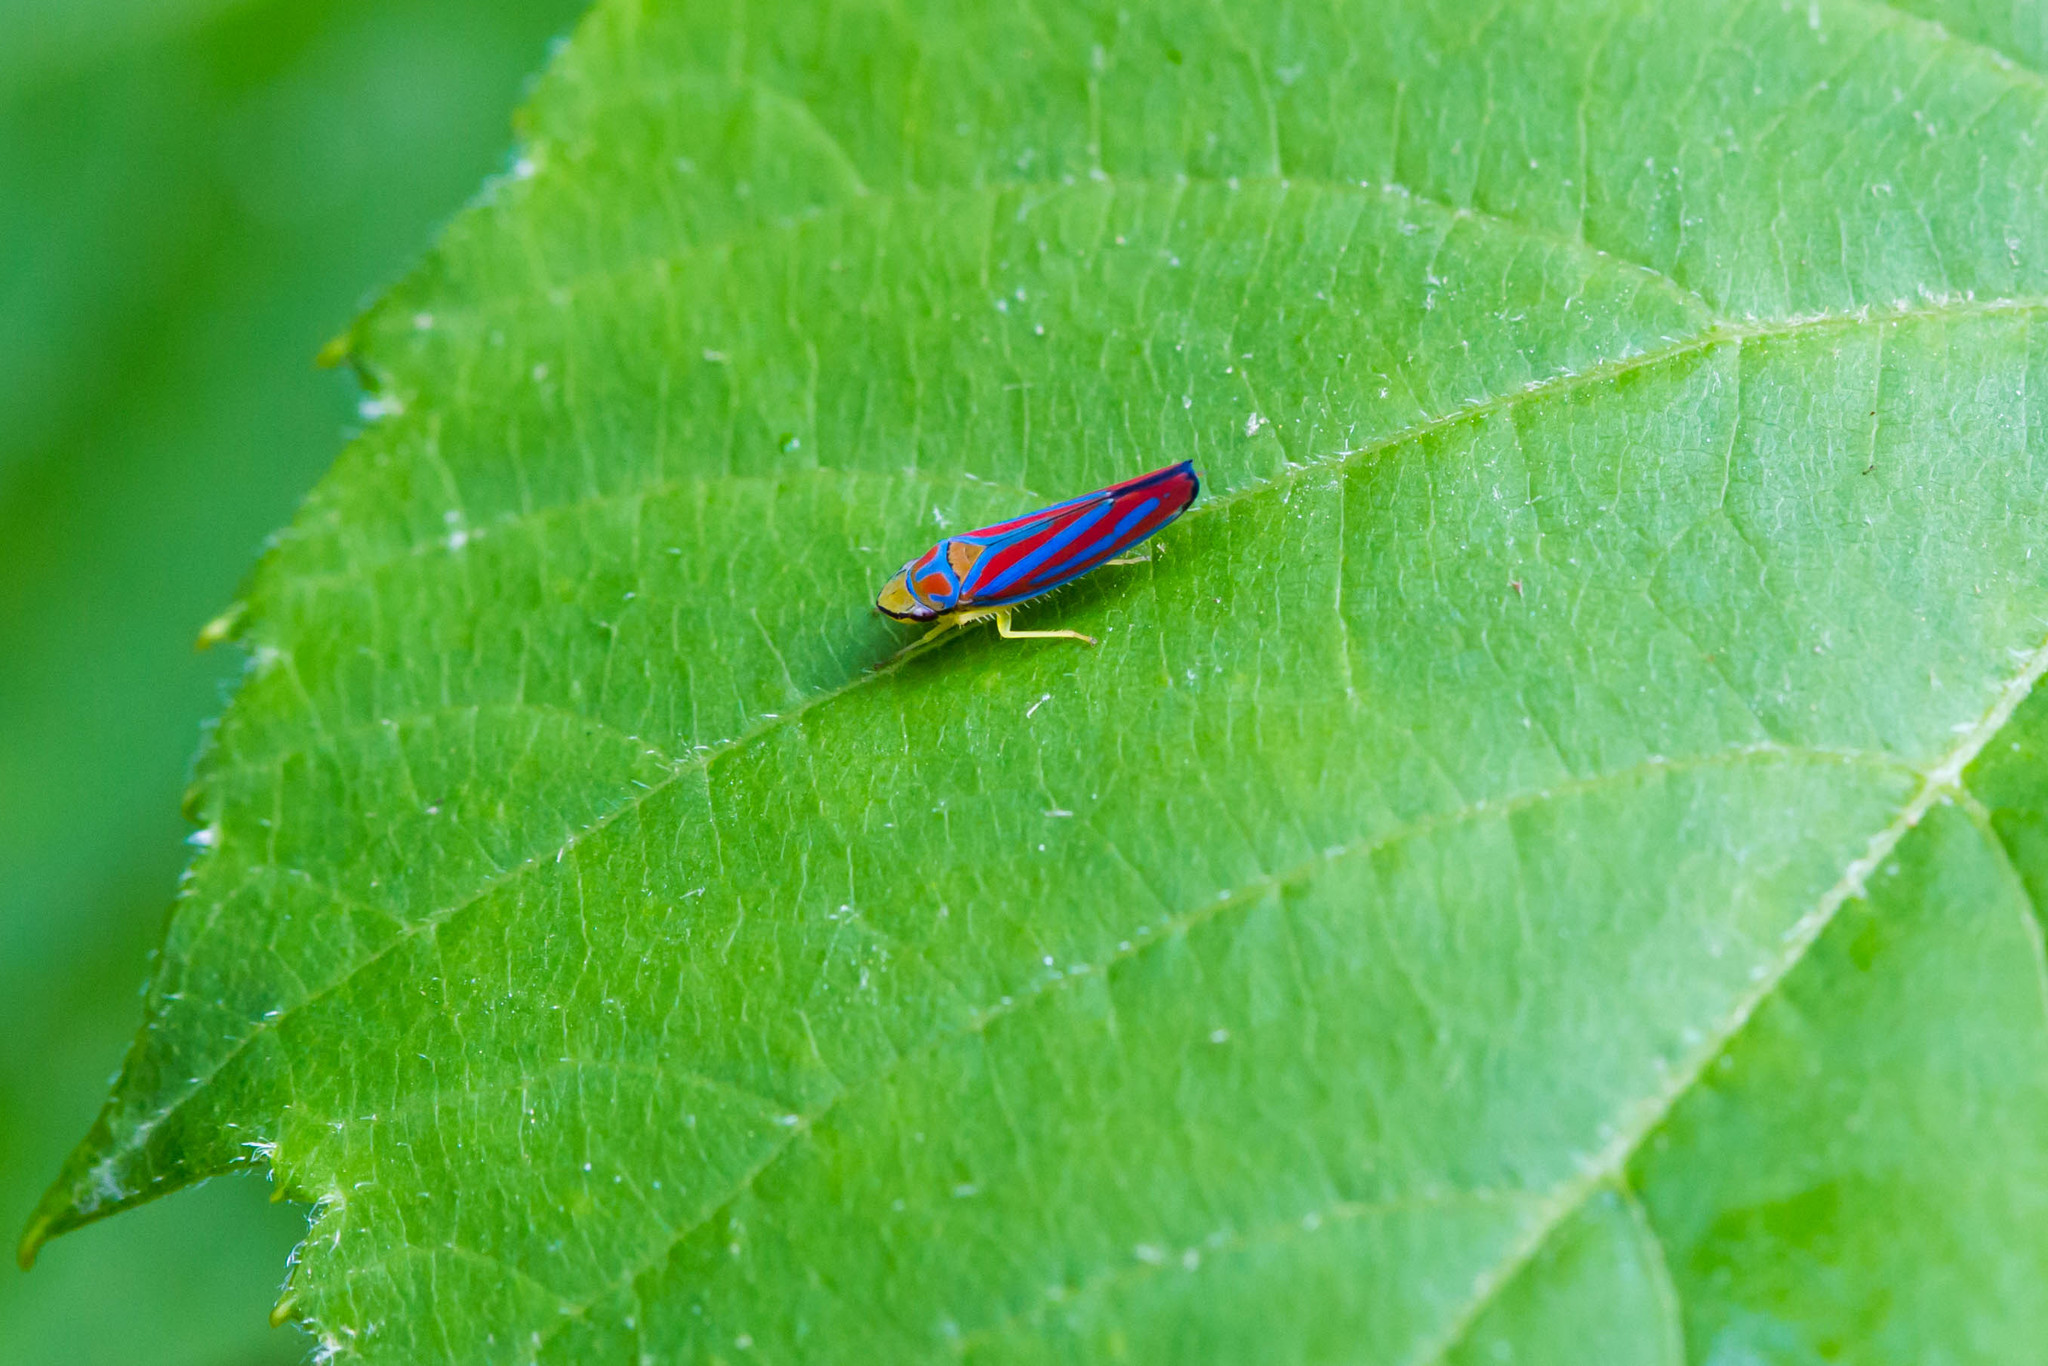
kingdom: Animalia
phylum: Arthropoda
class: Insecta
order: Hemiptera
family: Cicadellidae
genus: Graphocephala
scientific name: Graphocephala coccinea
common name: Candy-striped leafhopper
